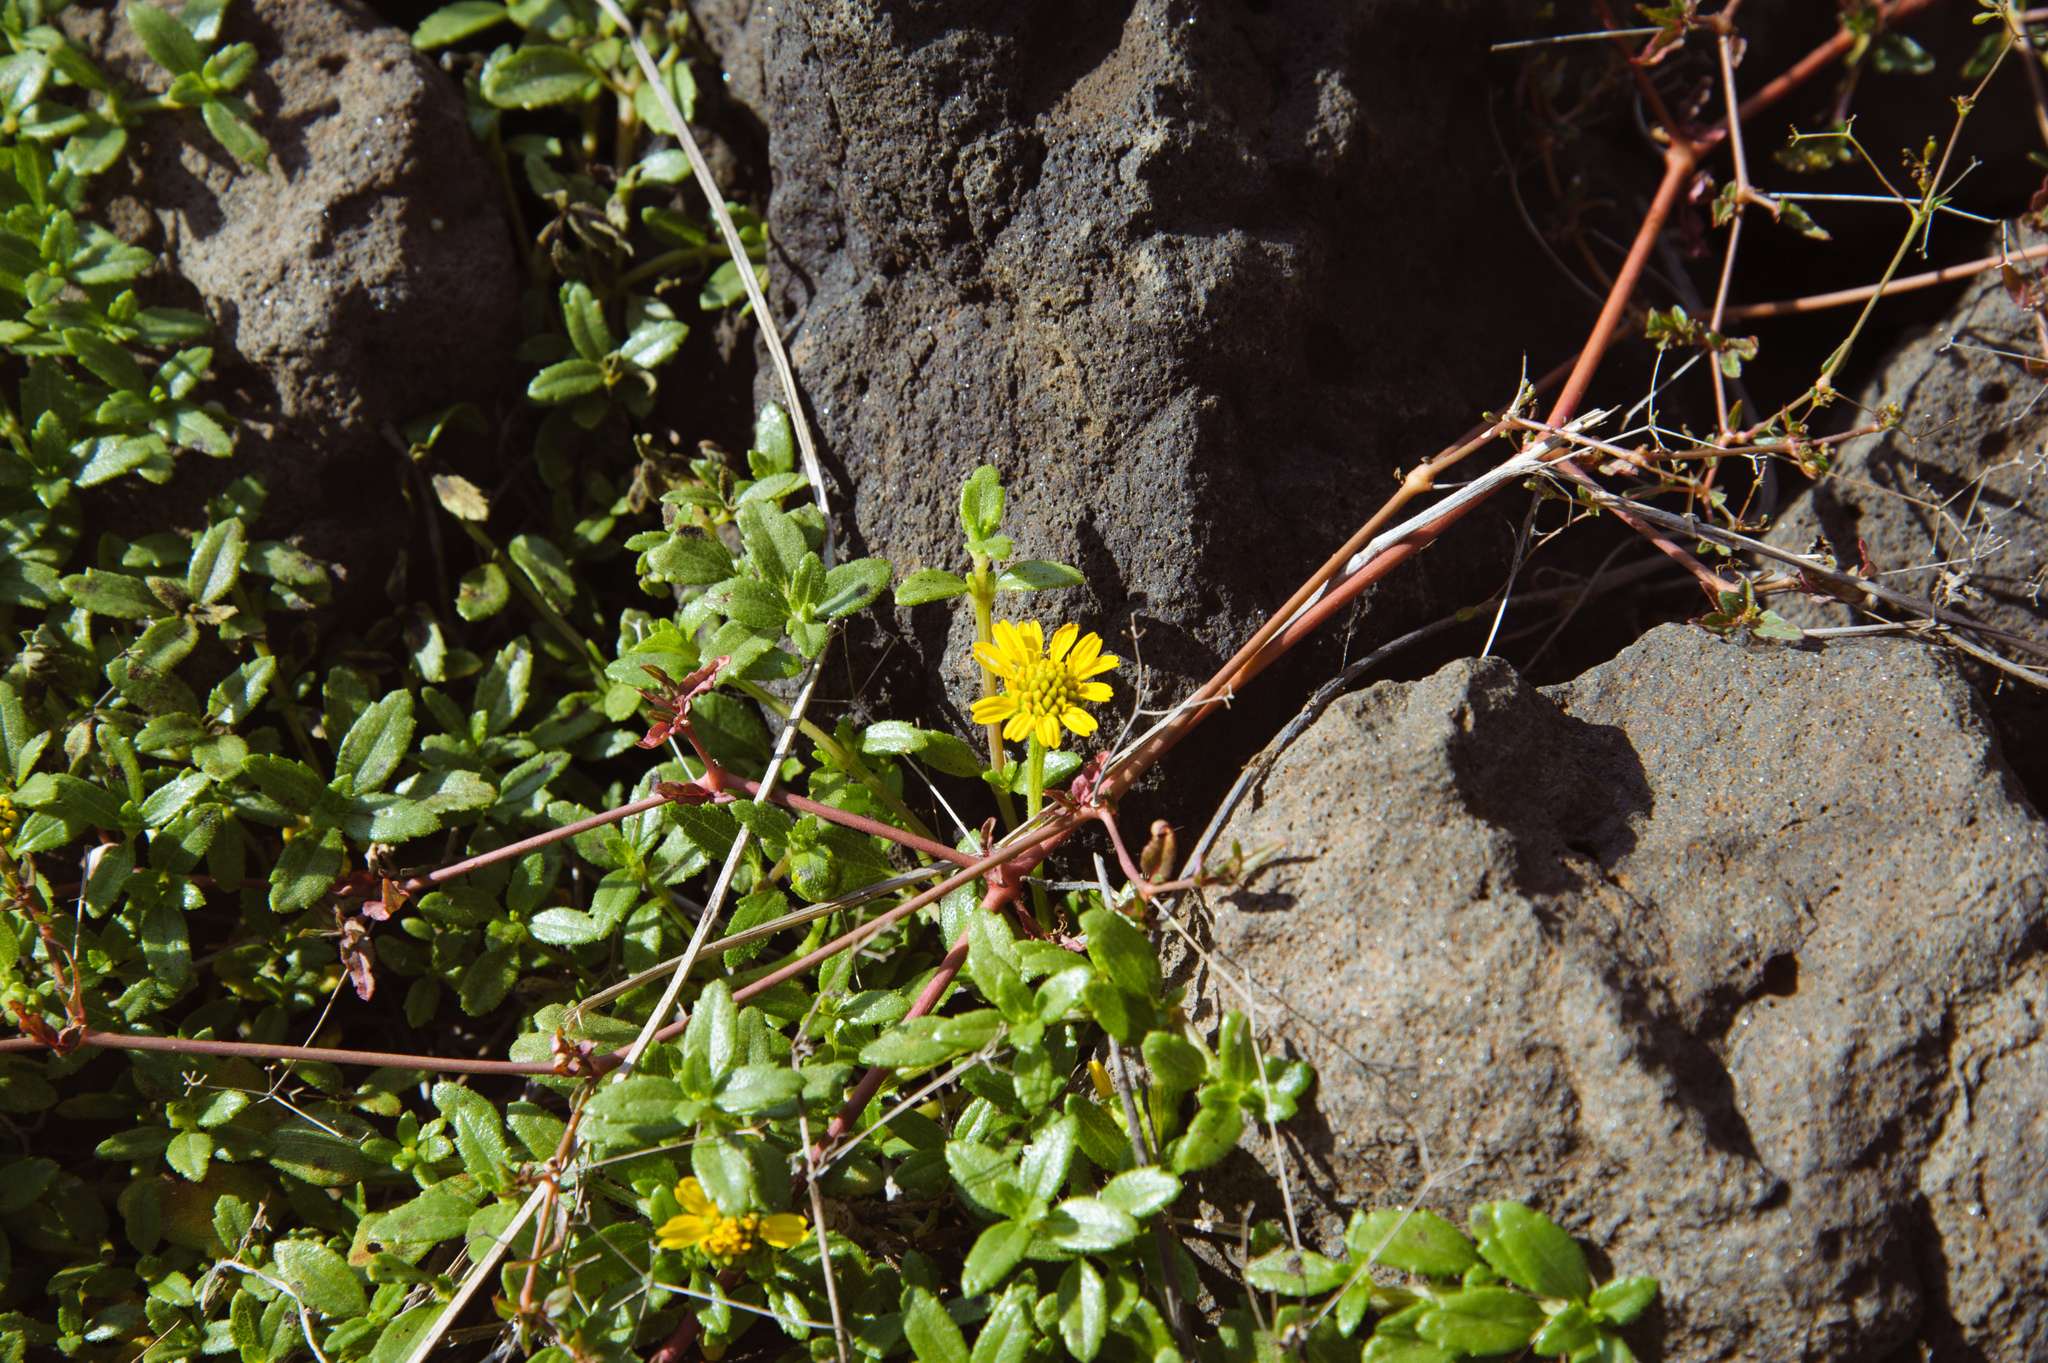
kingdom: Plantae
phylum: Tracheophyta
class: Magnoliopsida
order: Asterales
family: Asteraceae
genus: Melanthera
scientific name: Melanthera prostrata
